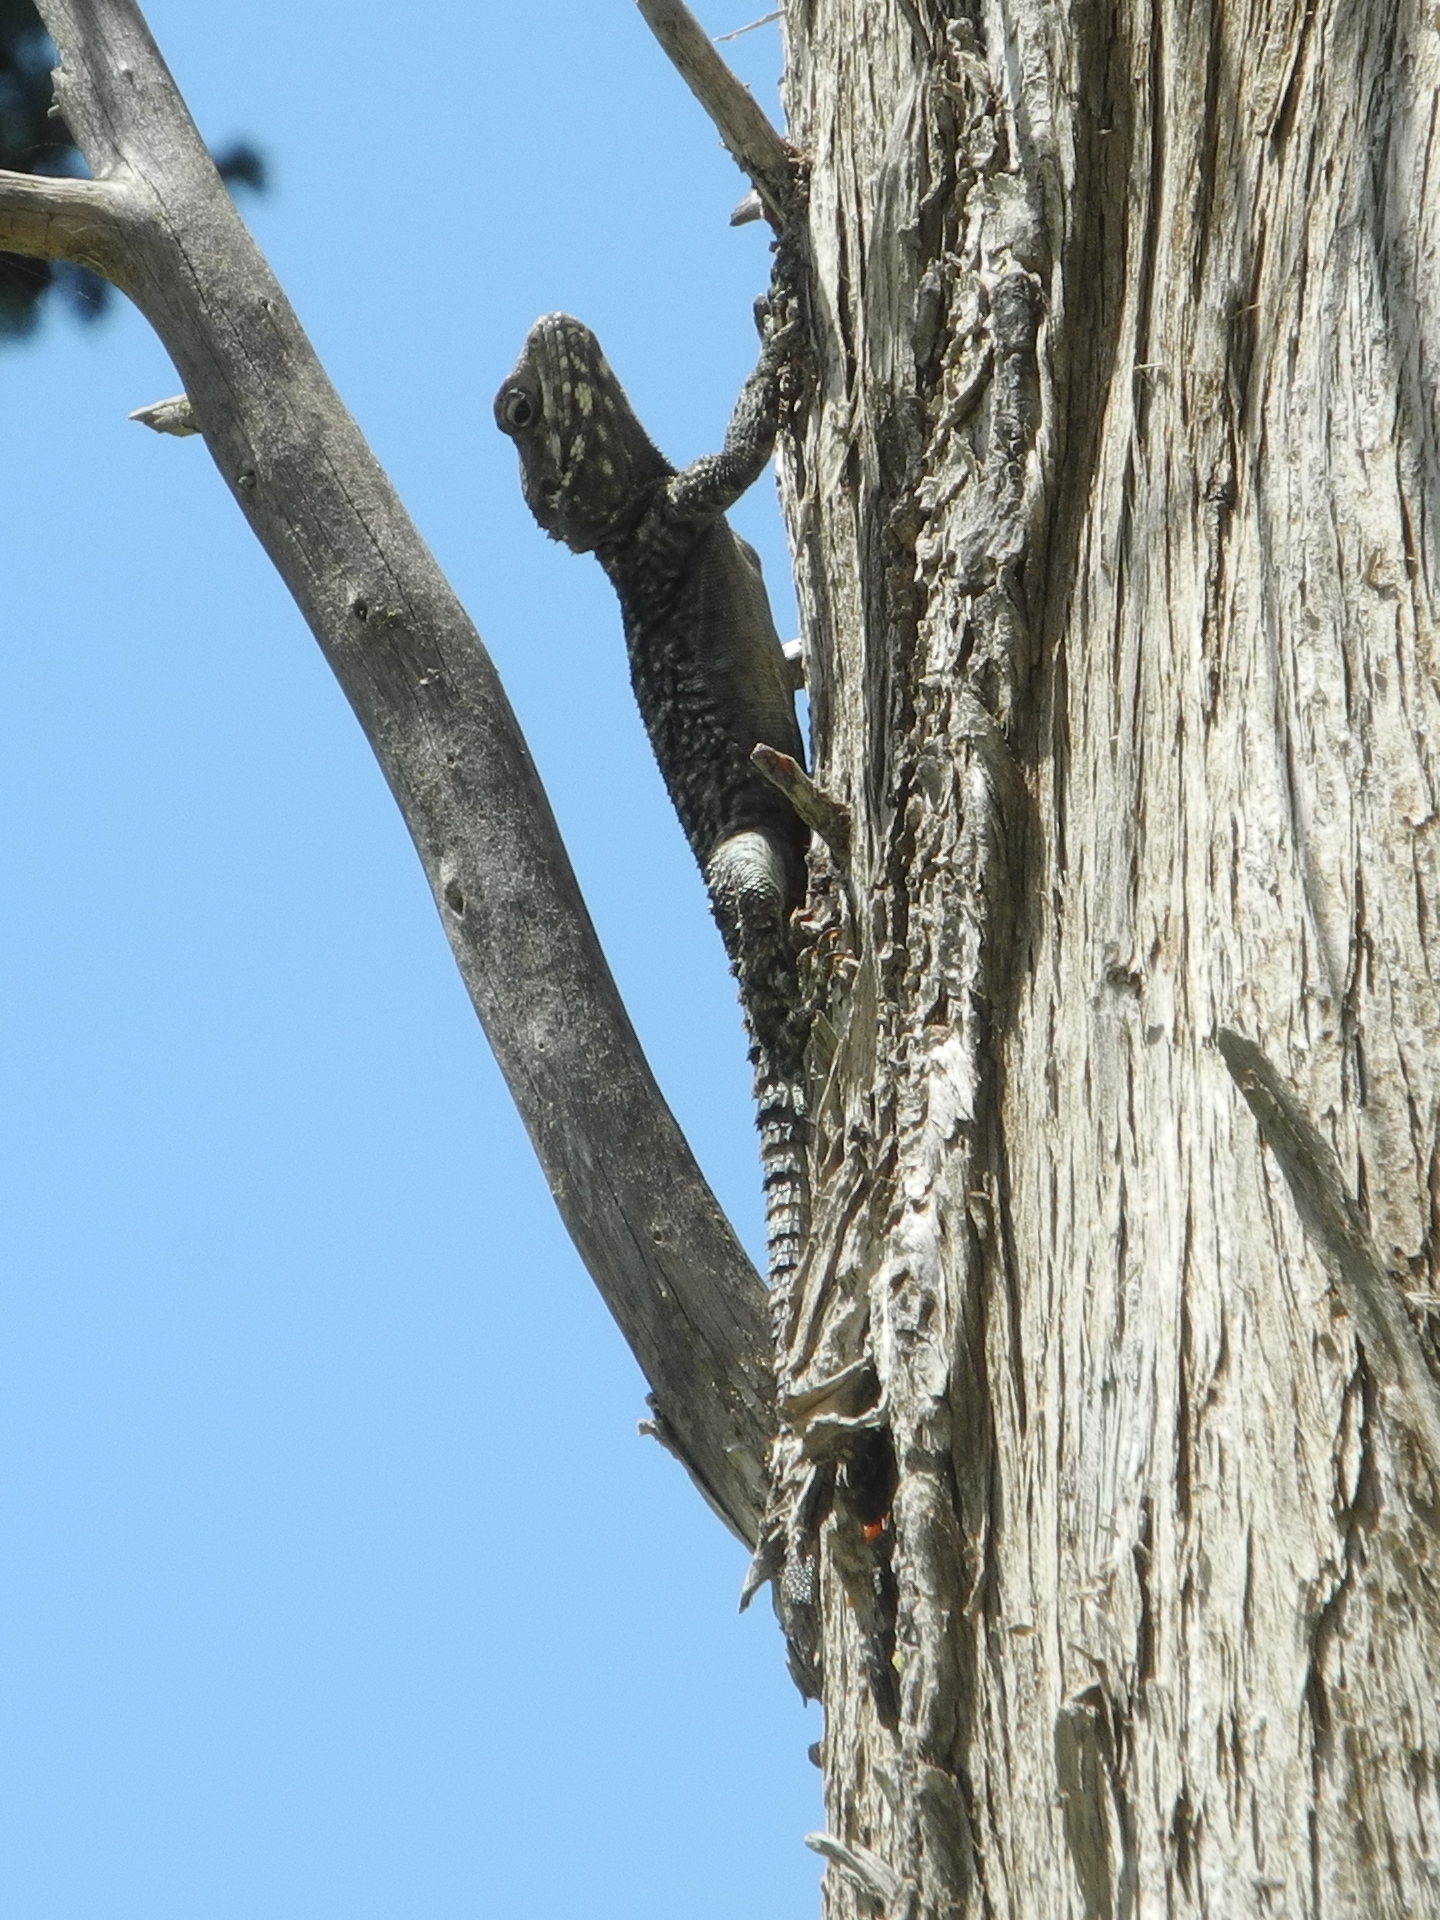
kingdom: Animalia
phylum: Chordata
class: Squamata
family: Agamidae
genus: Laudakia
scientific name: Laudakia vulgaris
